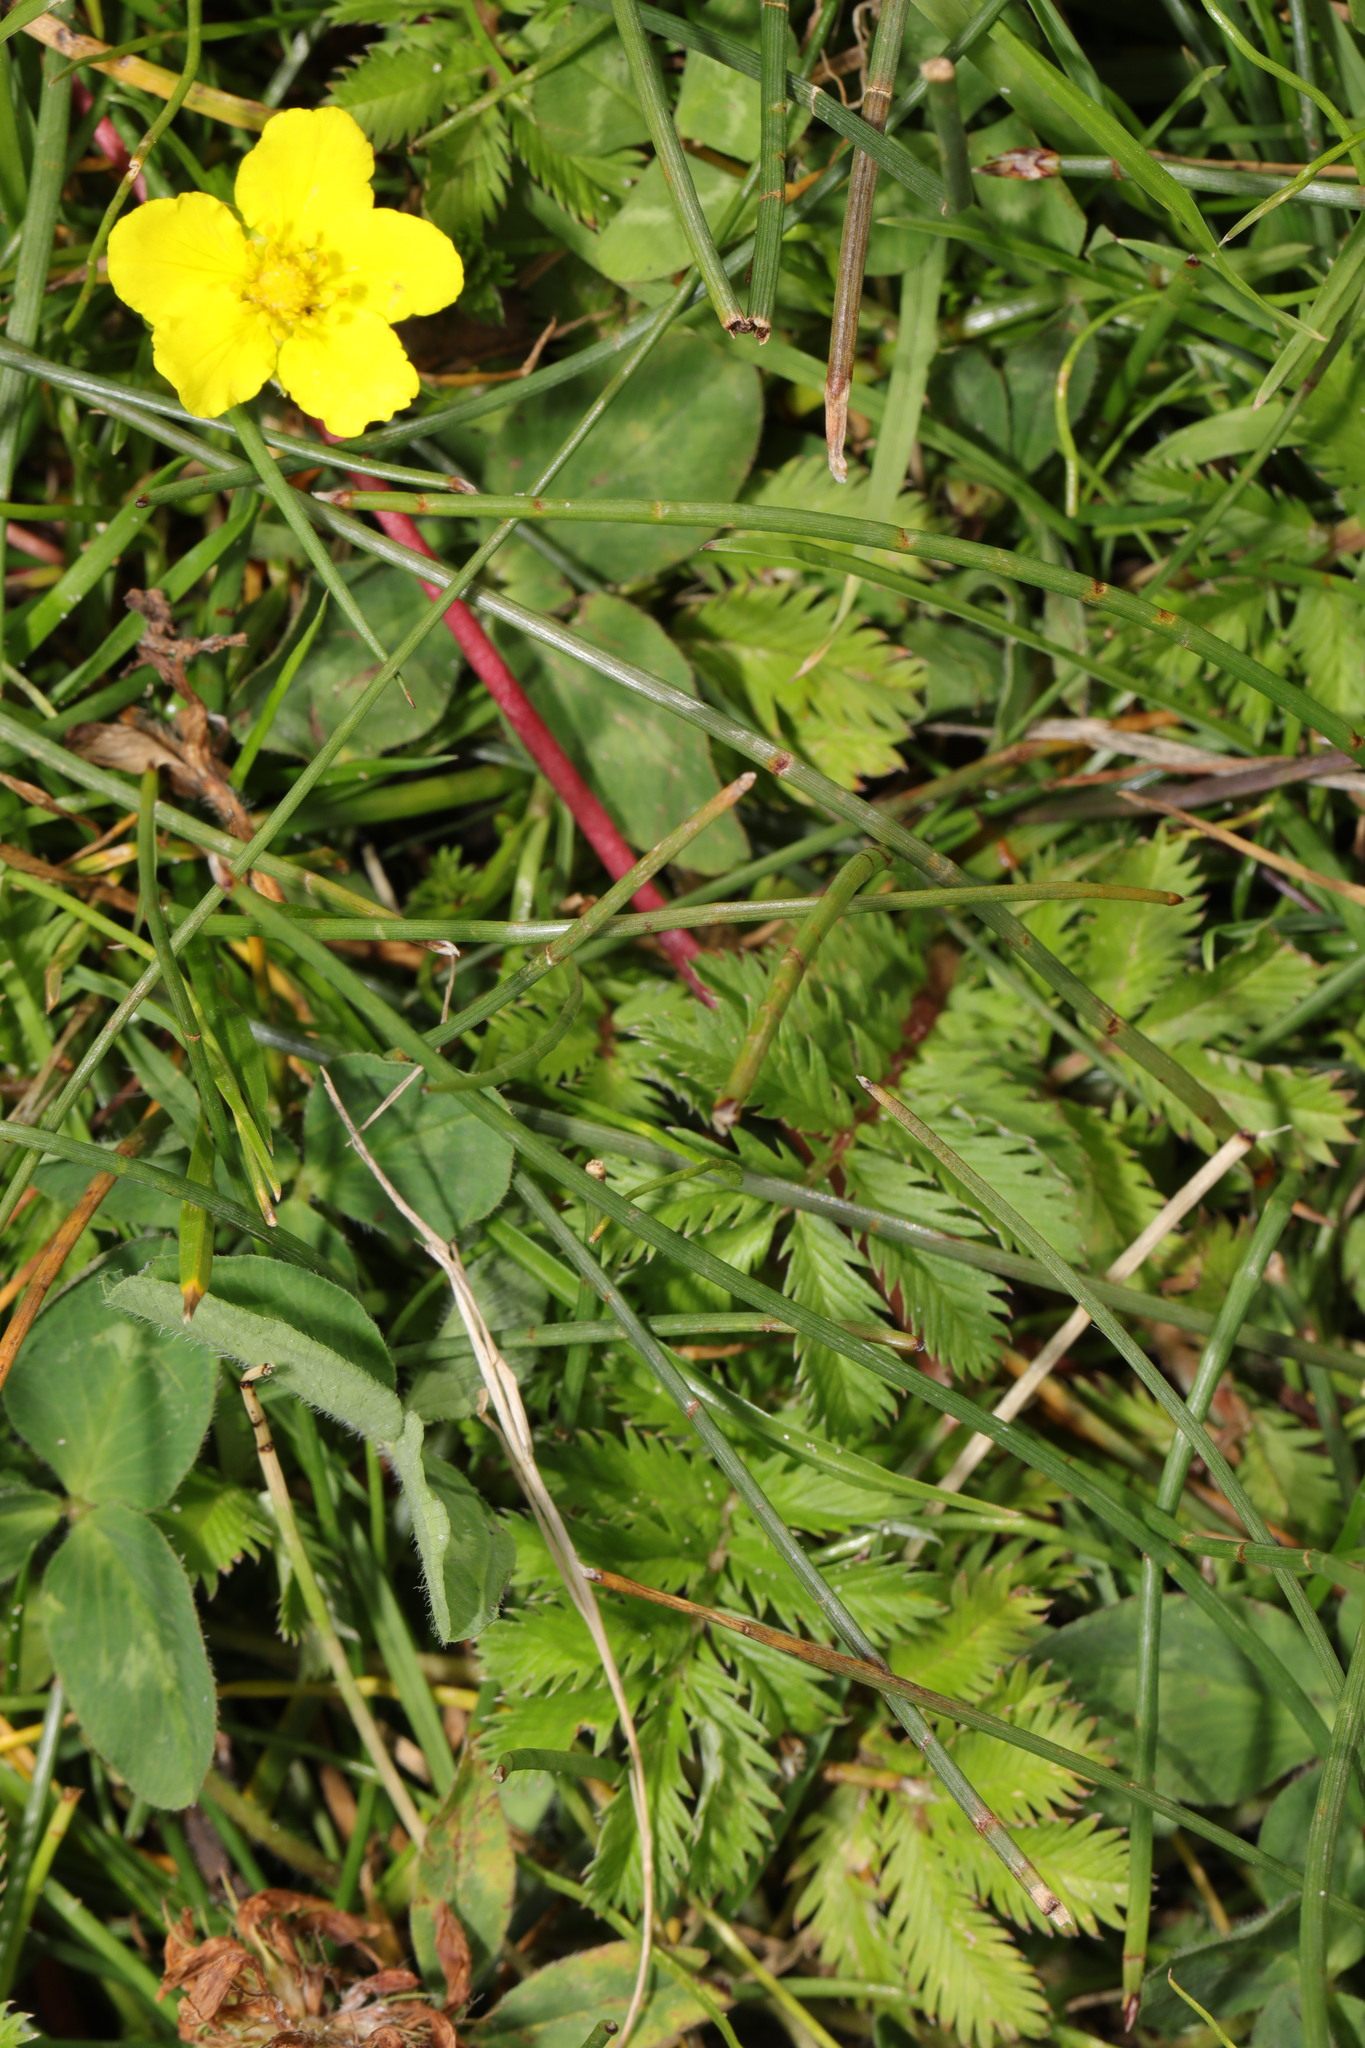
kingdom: Plantae
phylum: Tracheophyta
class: Magnoliopsida
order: Rosales
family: Rosaceae
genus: Argentina
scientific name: Argentina anserina
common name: Common silverweed
